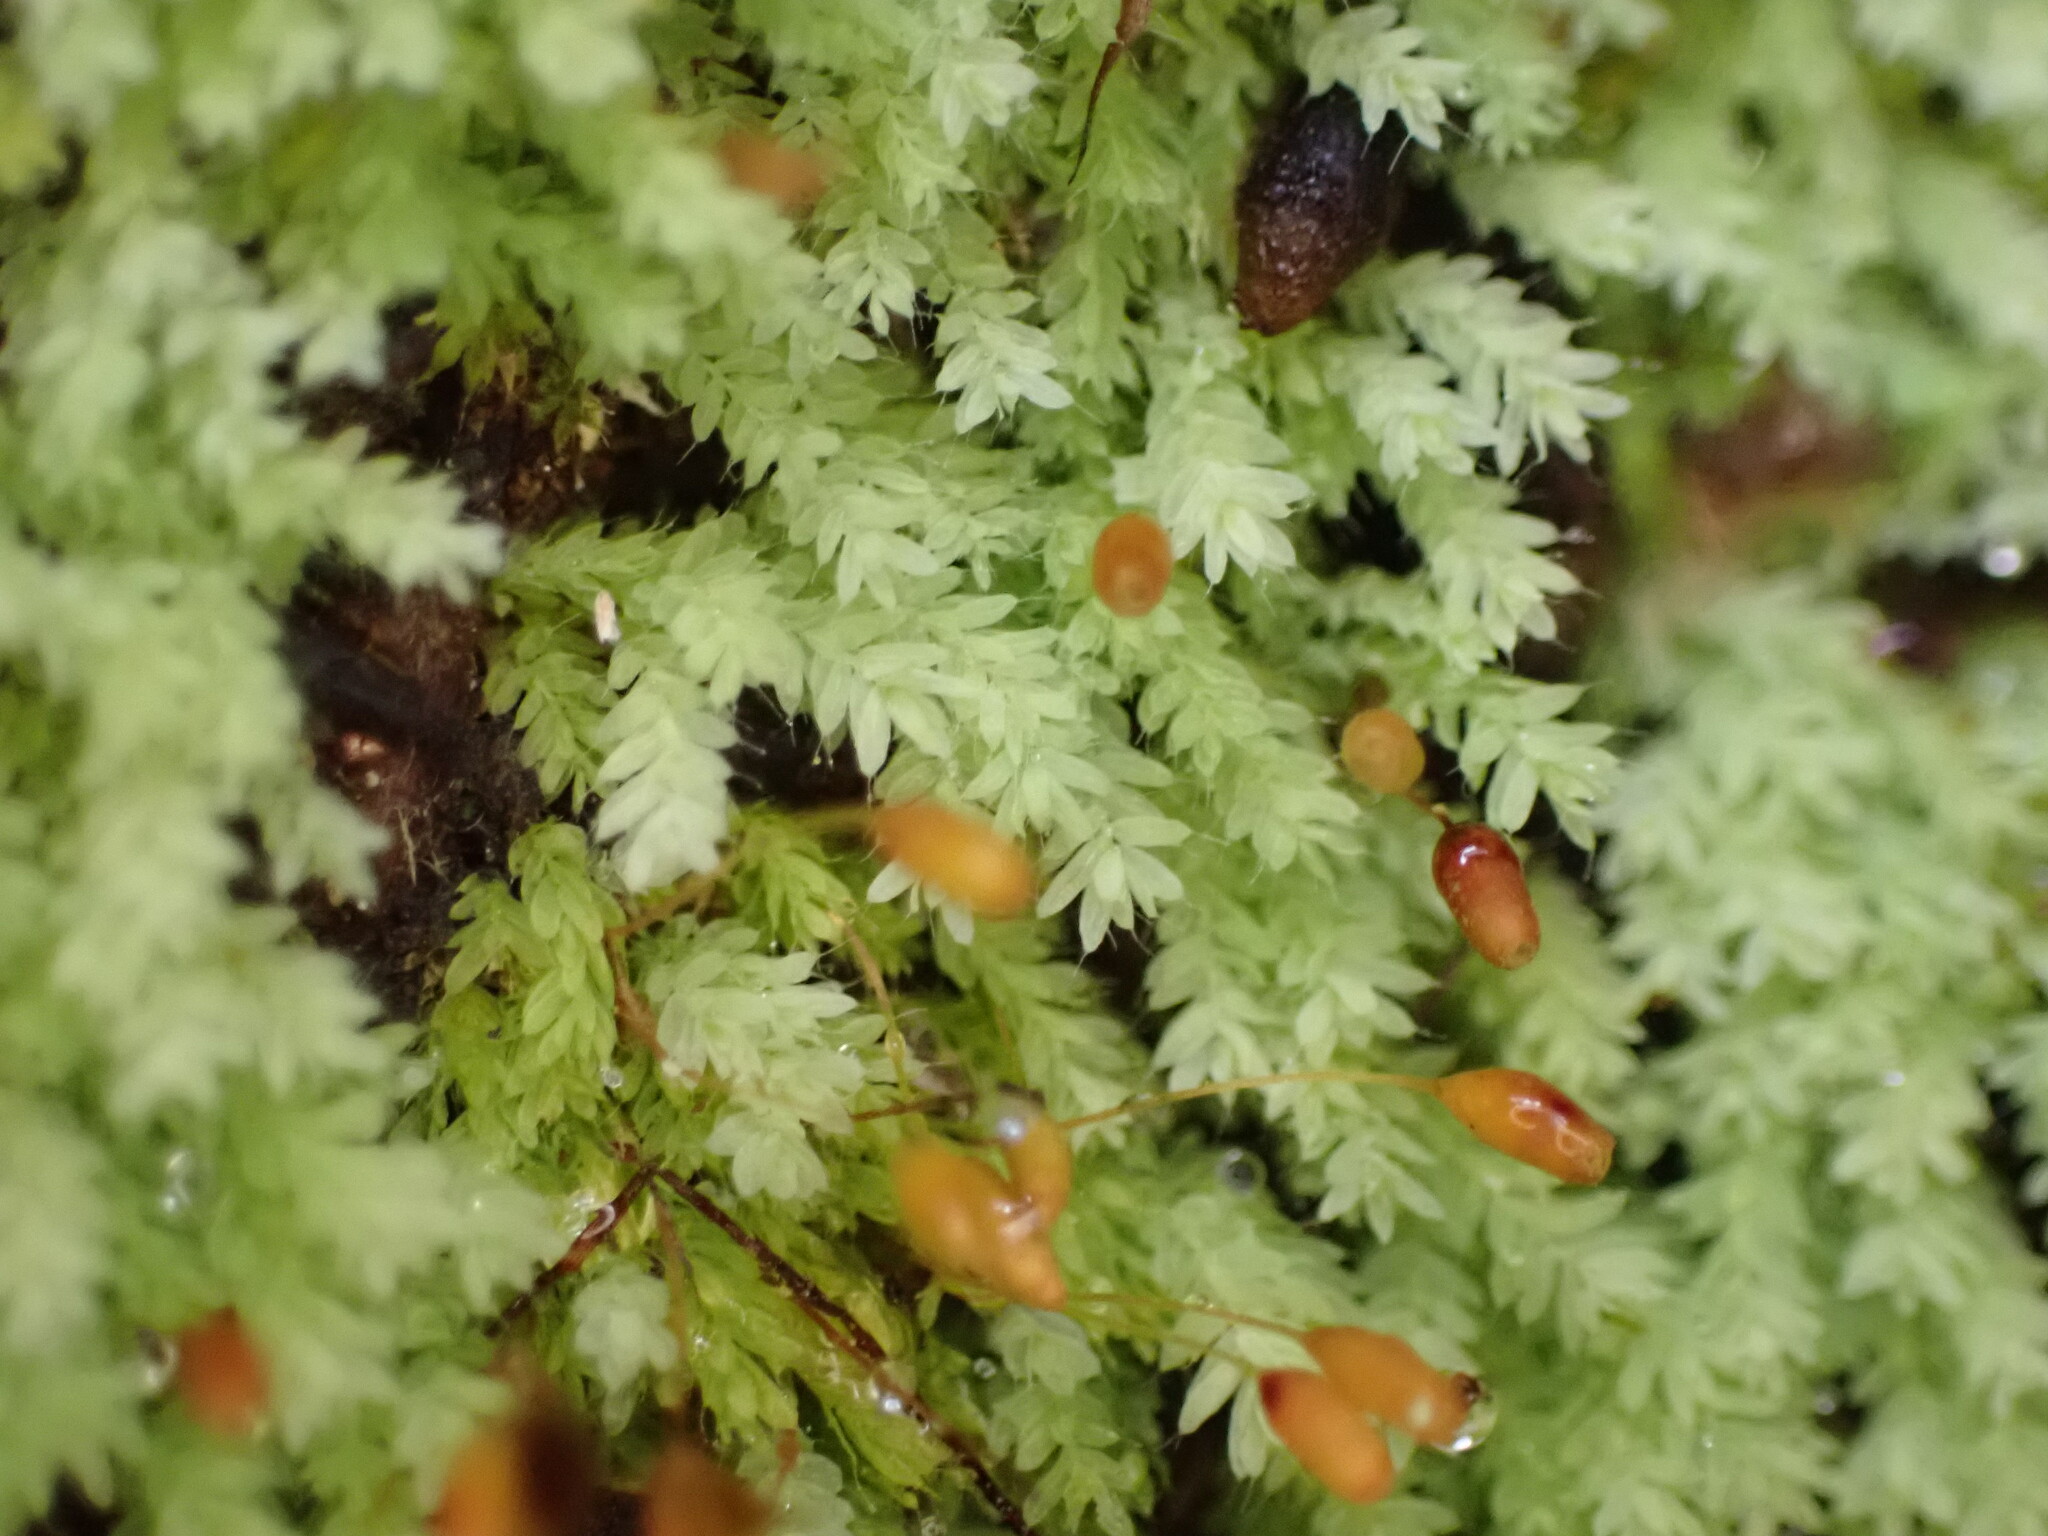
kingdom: Plantae
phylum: Bryophyta
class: Bryopsida
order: Orthodontiales
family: Orthodontiaceae
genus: Hymenodon
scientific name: Hymenodon pilifer
